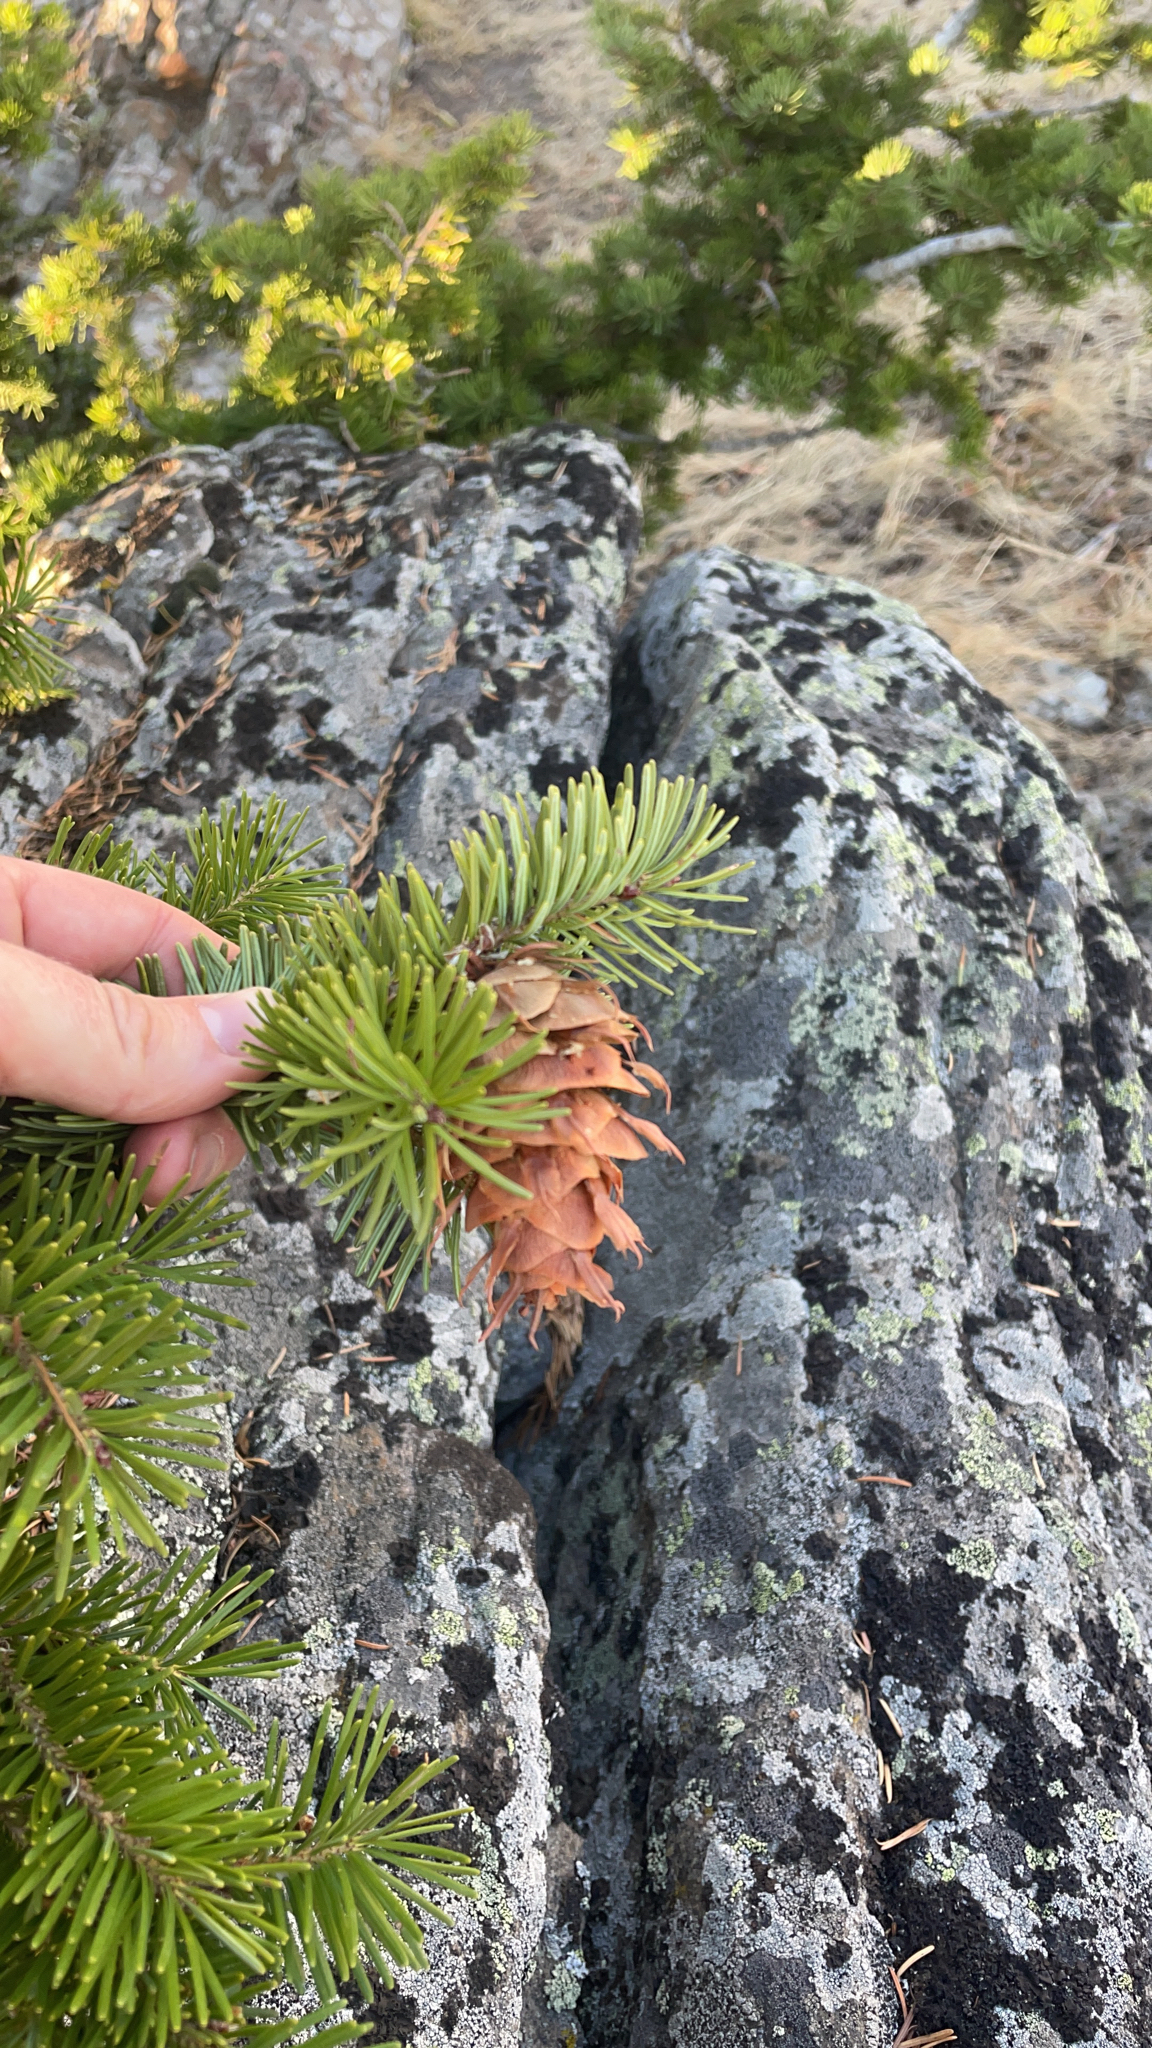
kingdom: Plantae
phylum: Tracheophyta
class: Pinopsida
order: Pinales
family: Pinaceae
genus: Pseudotsuga
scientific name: Pseudotsuga menziesii
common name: Douglas fir
